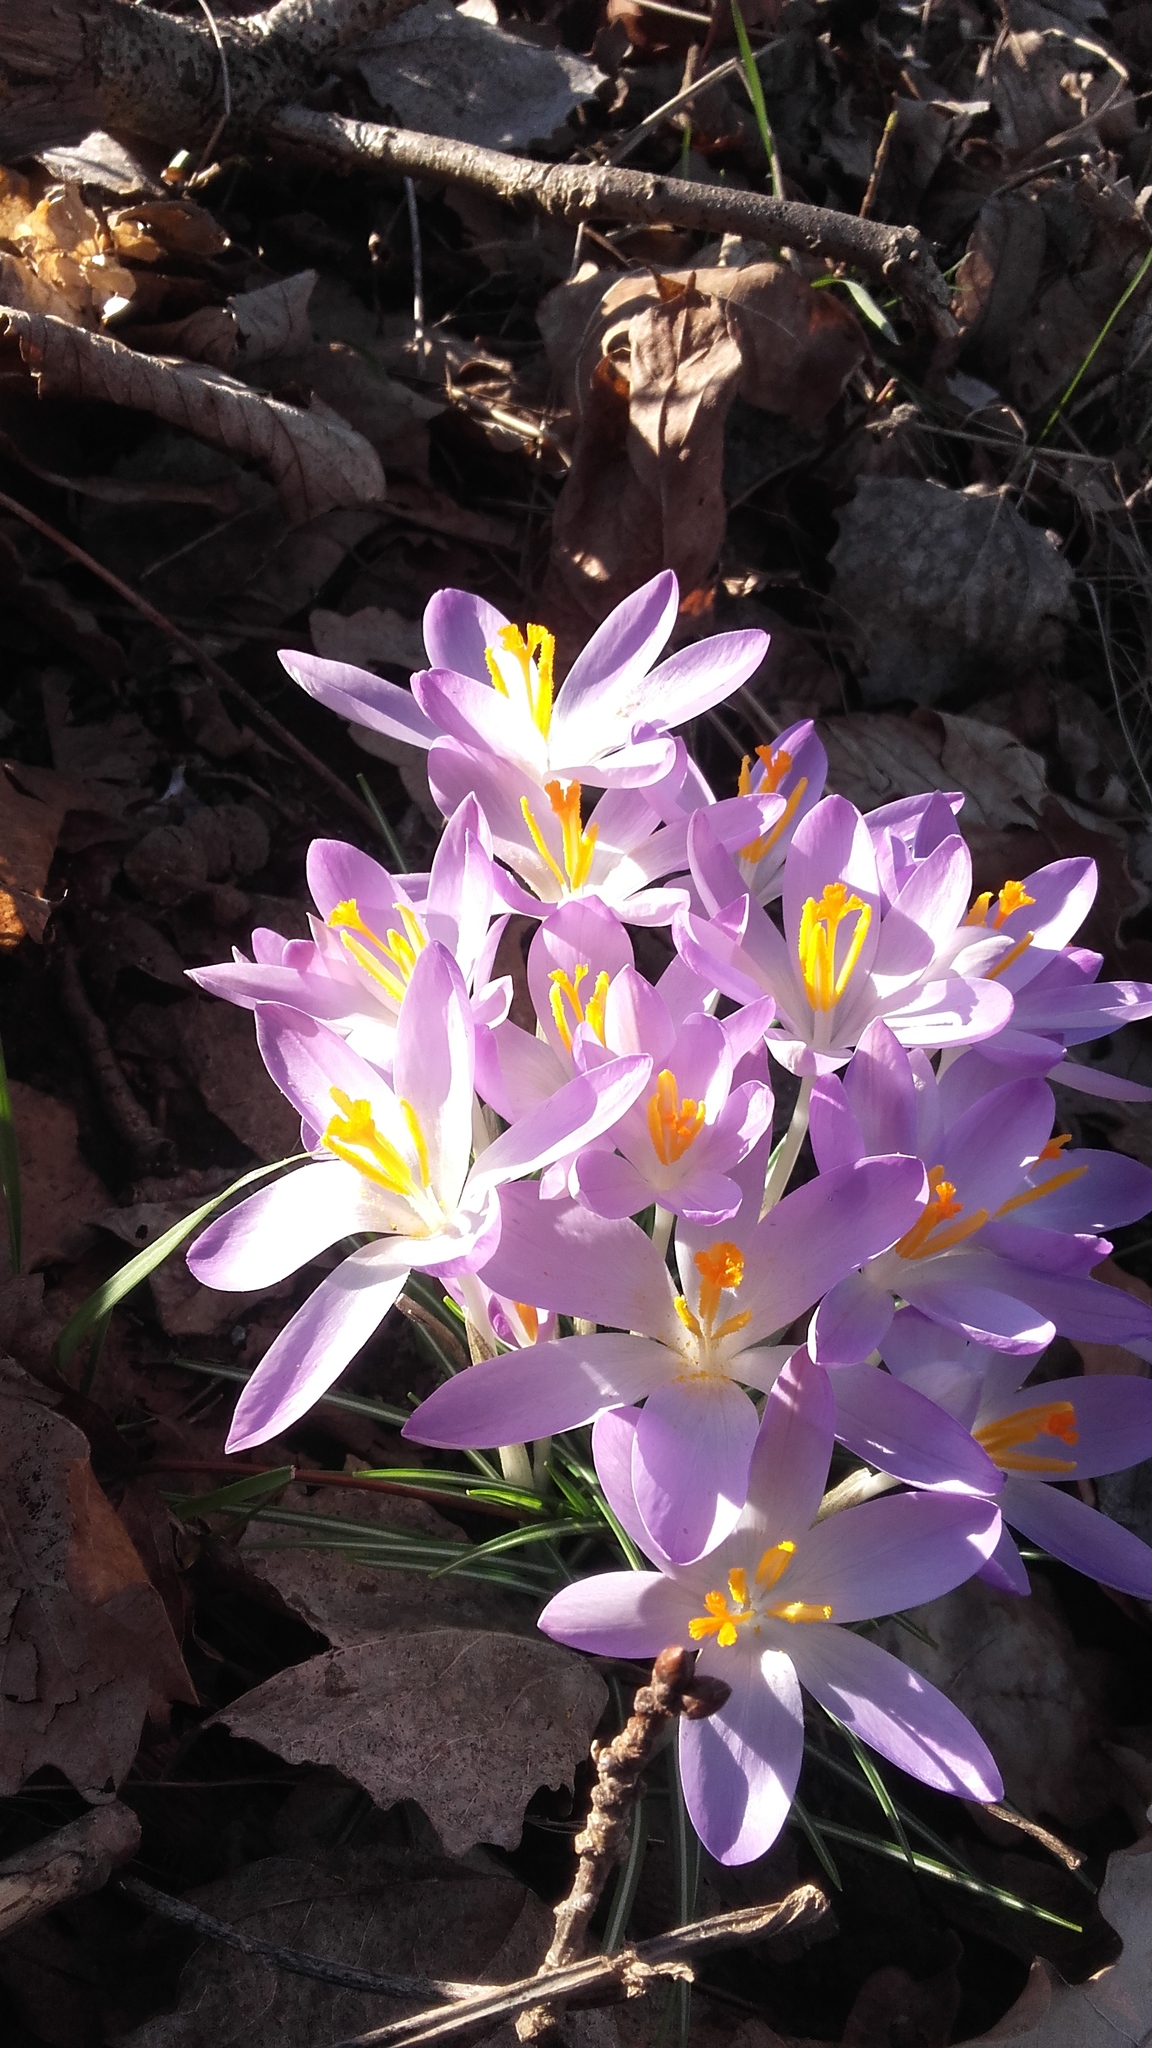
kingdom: Plantae
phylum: Tracheophyta
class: Liliopsida
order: Asparagales
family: Iridaceae
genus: Crocus
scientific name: Crocus tommasinianus
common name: Early crocus
